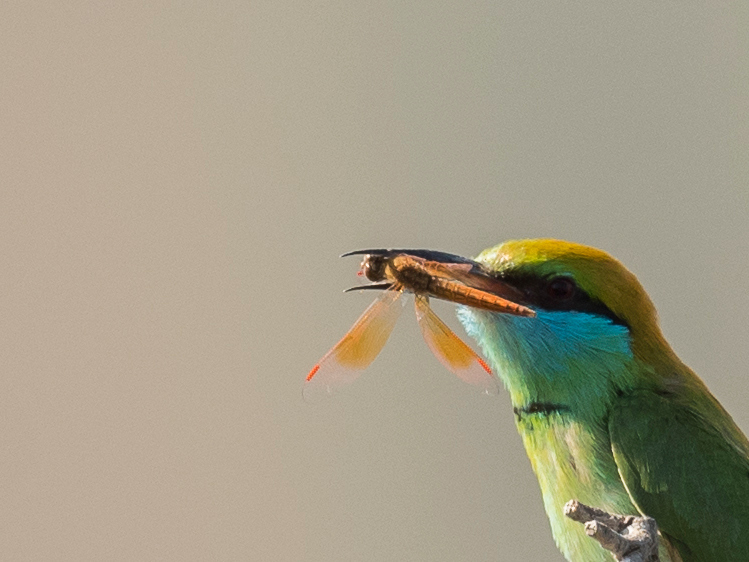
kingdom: Animalia
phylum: Arthropoda
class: Insecta
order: Odonata
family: Libellulidae
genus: Brachythemis
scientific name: Brachythemis contaminata
